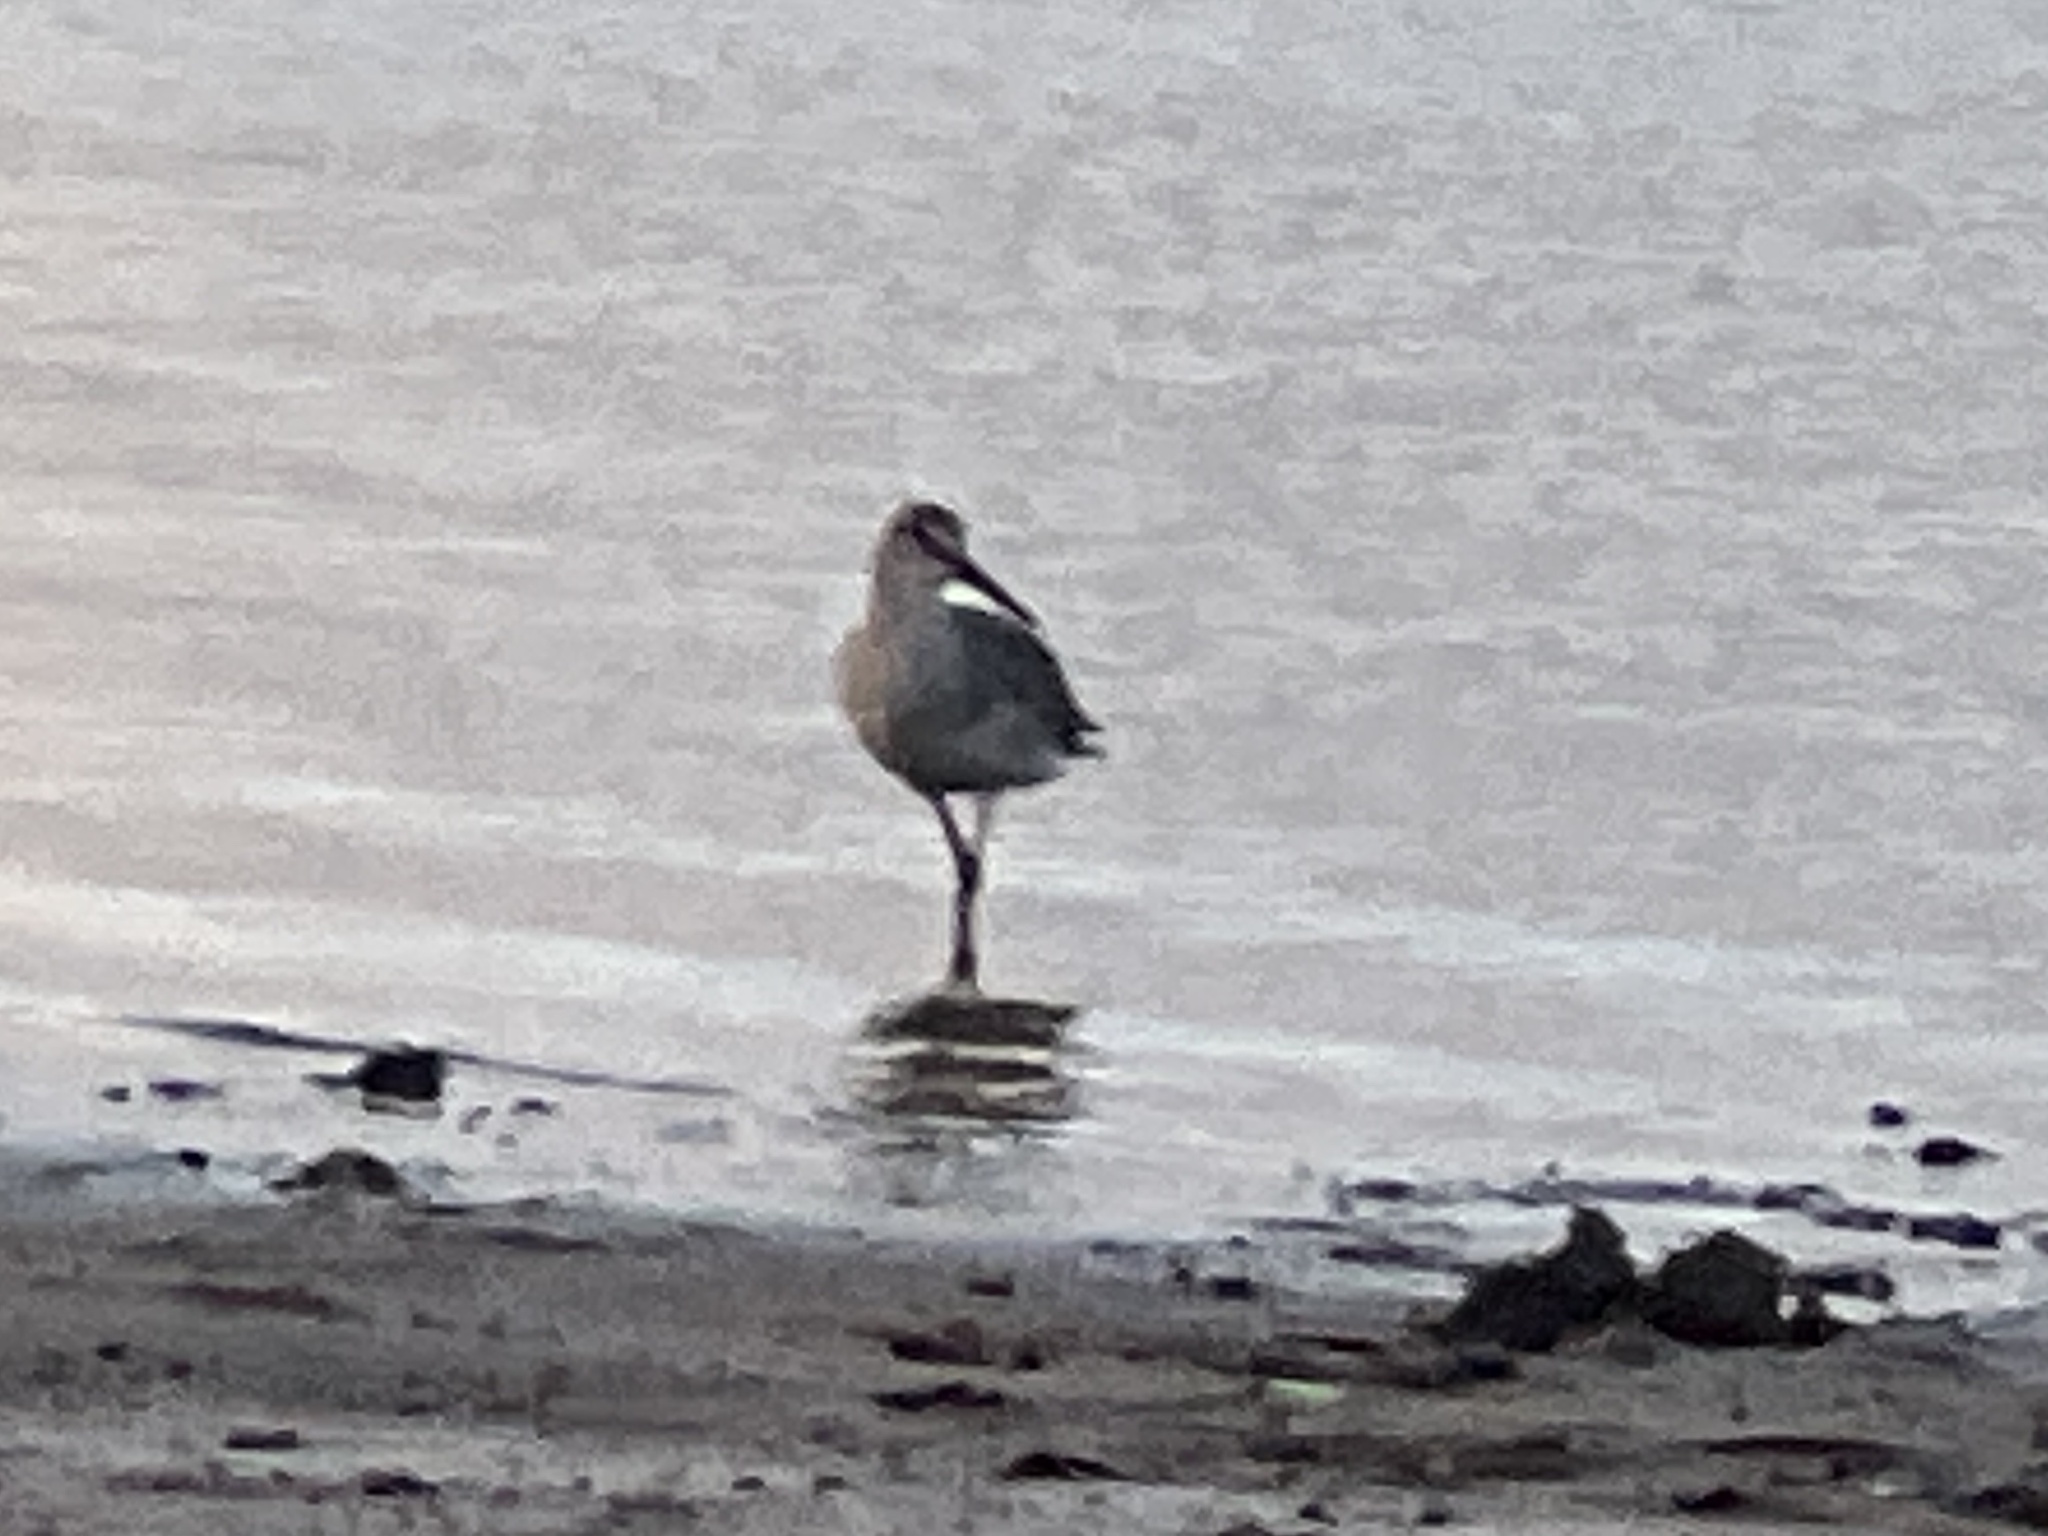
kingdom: Animalia
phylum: Chordata
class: Aves
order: Charadriiformes
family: Scolopacidae
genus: Tringa
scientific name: Tringa semipalmata
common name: Willet
